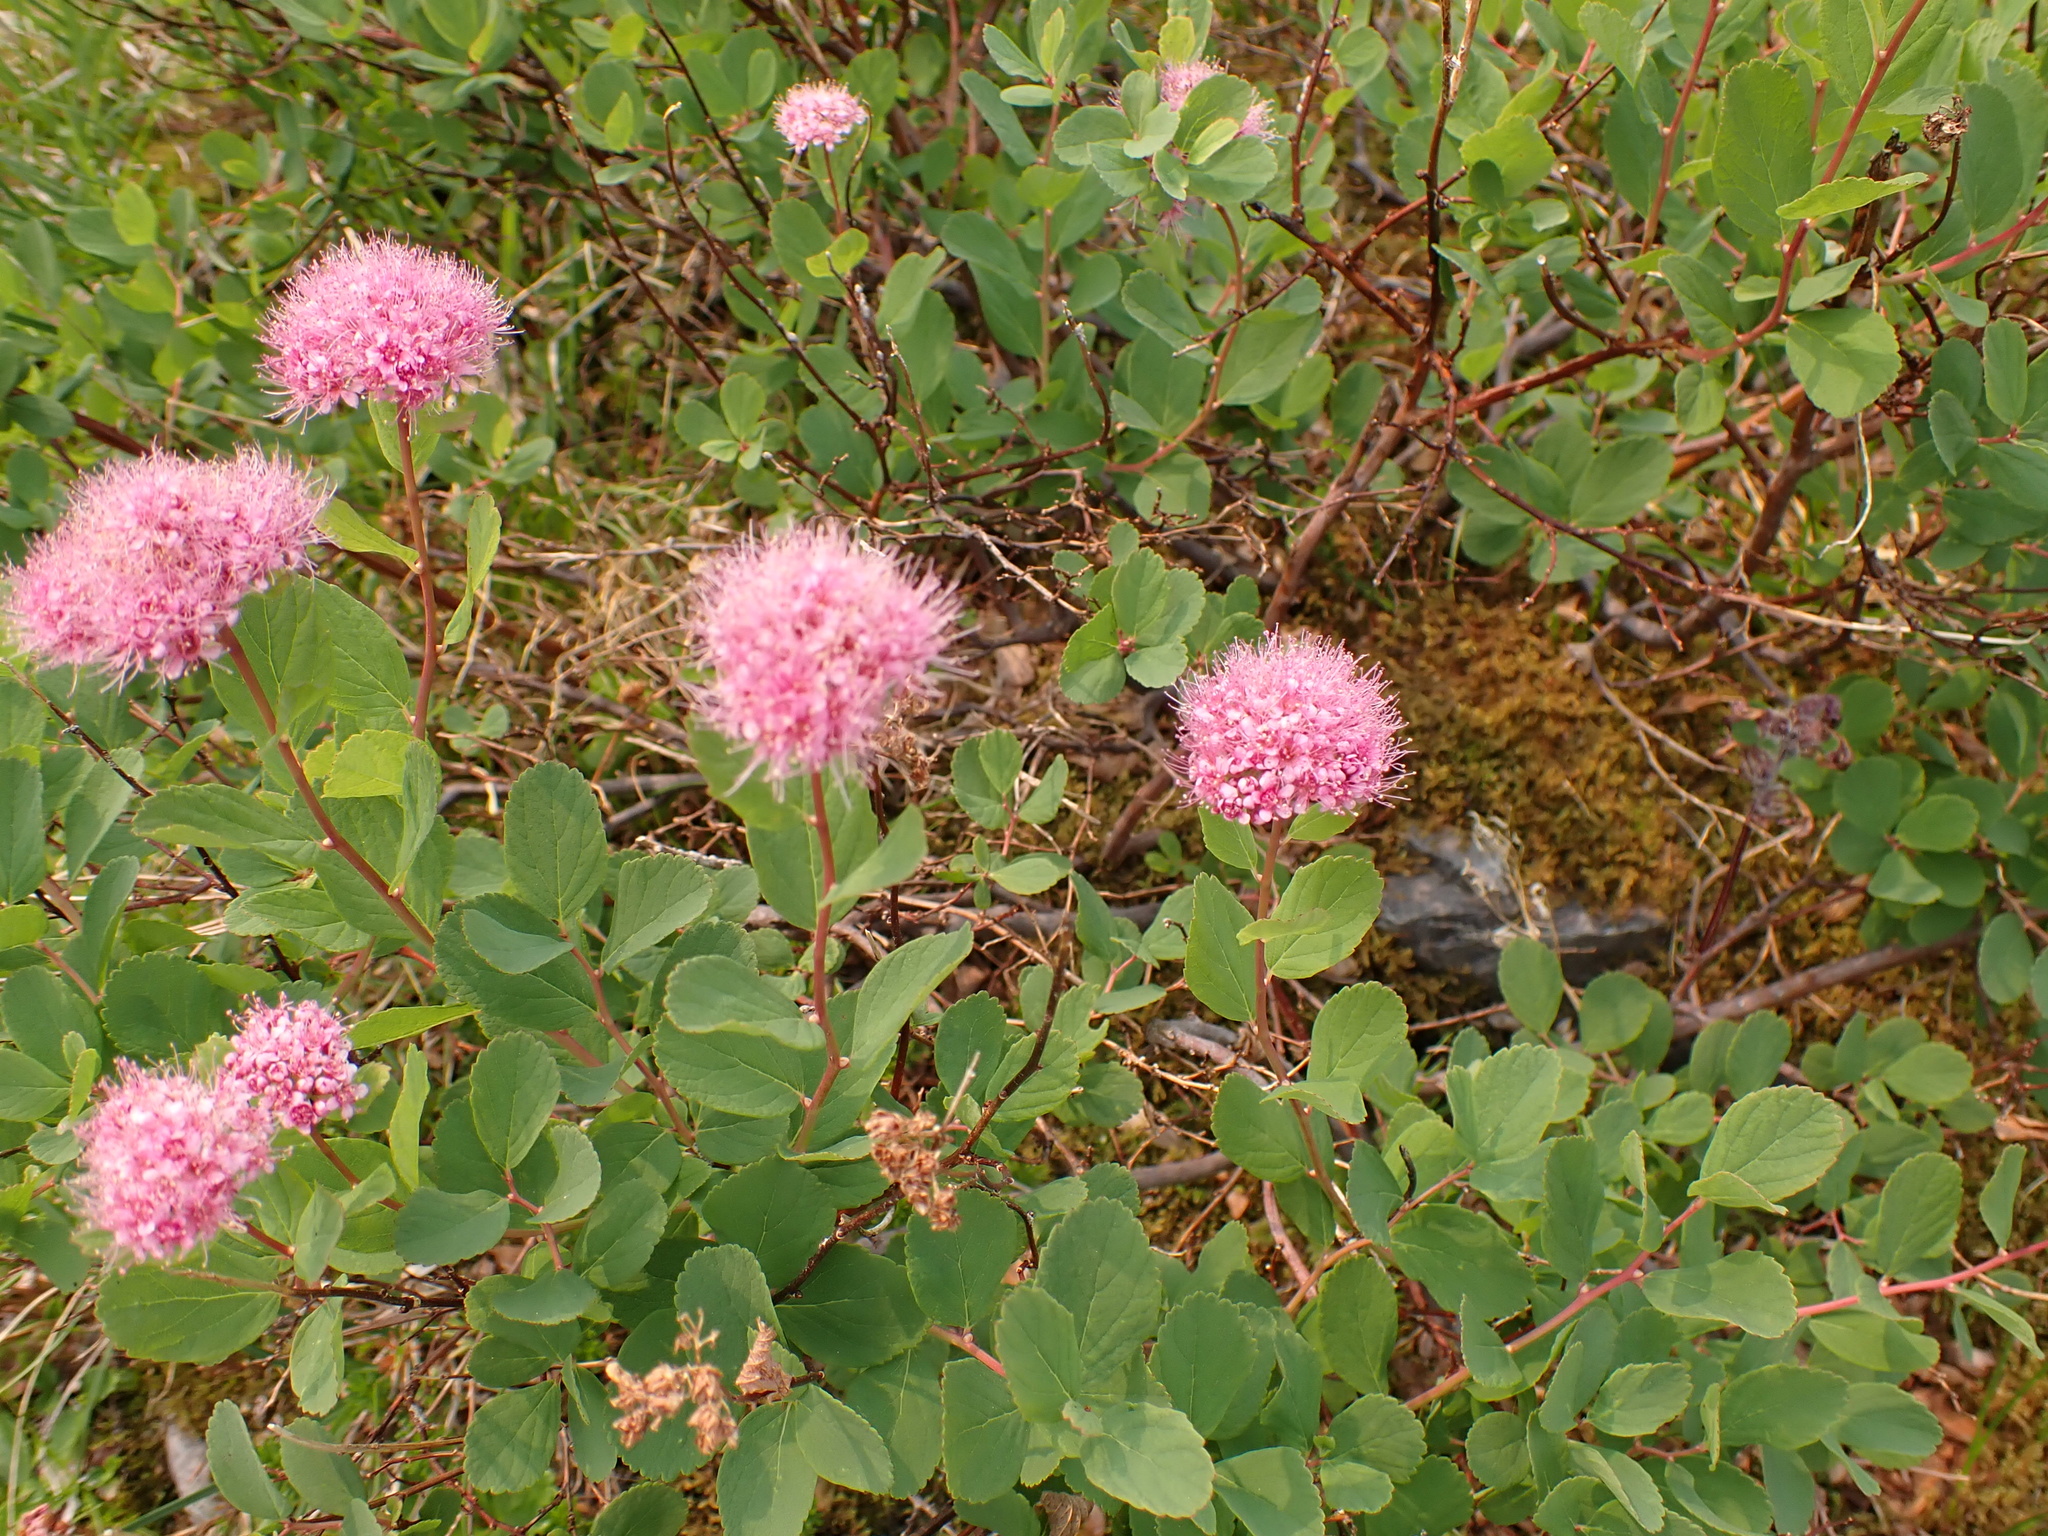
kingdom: Plantae
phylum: Tracheophyta
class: Magnoliopsida
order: Rosales
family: Rosaceae
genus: Spiraea
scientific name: Spiraea splendens
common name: Subalpine meadowsweet
